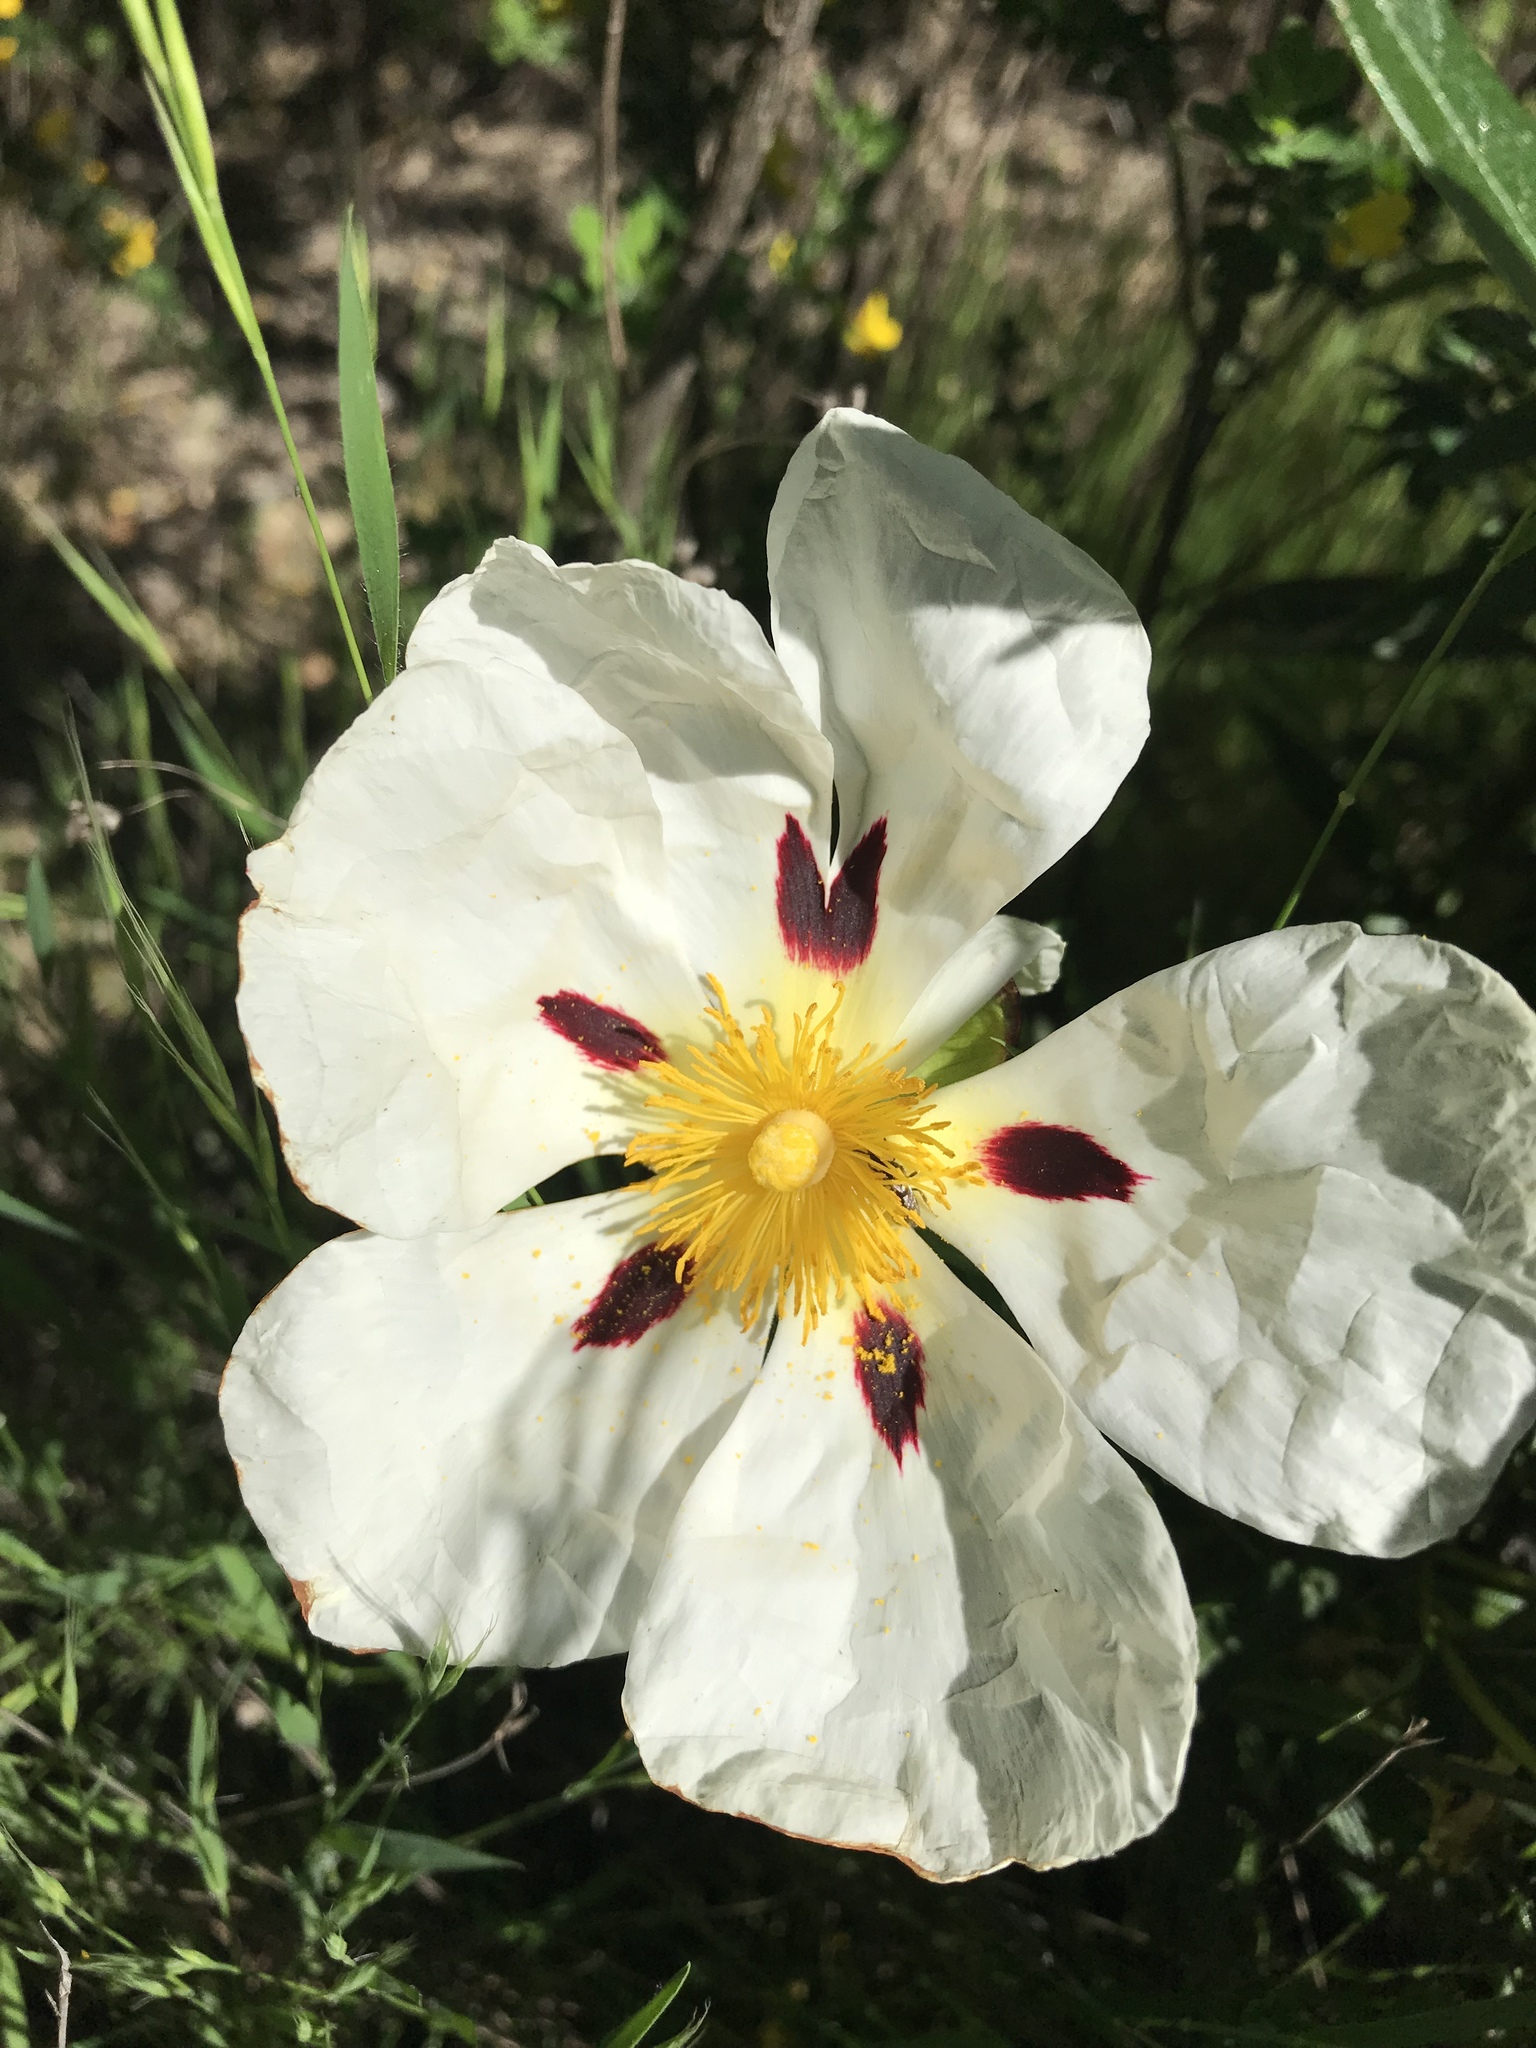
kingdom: Plantae
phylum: Tracheophyta
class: Magnoliopsida
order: Malvales
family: Cistaceae
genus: Cistus
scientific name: Cistus ladanifer
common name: Common gum cistus
